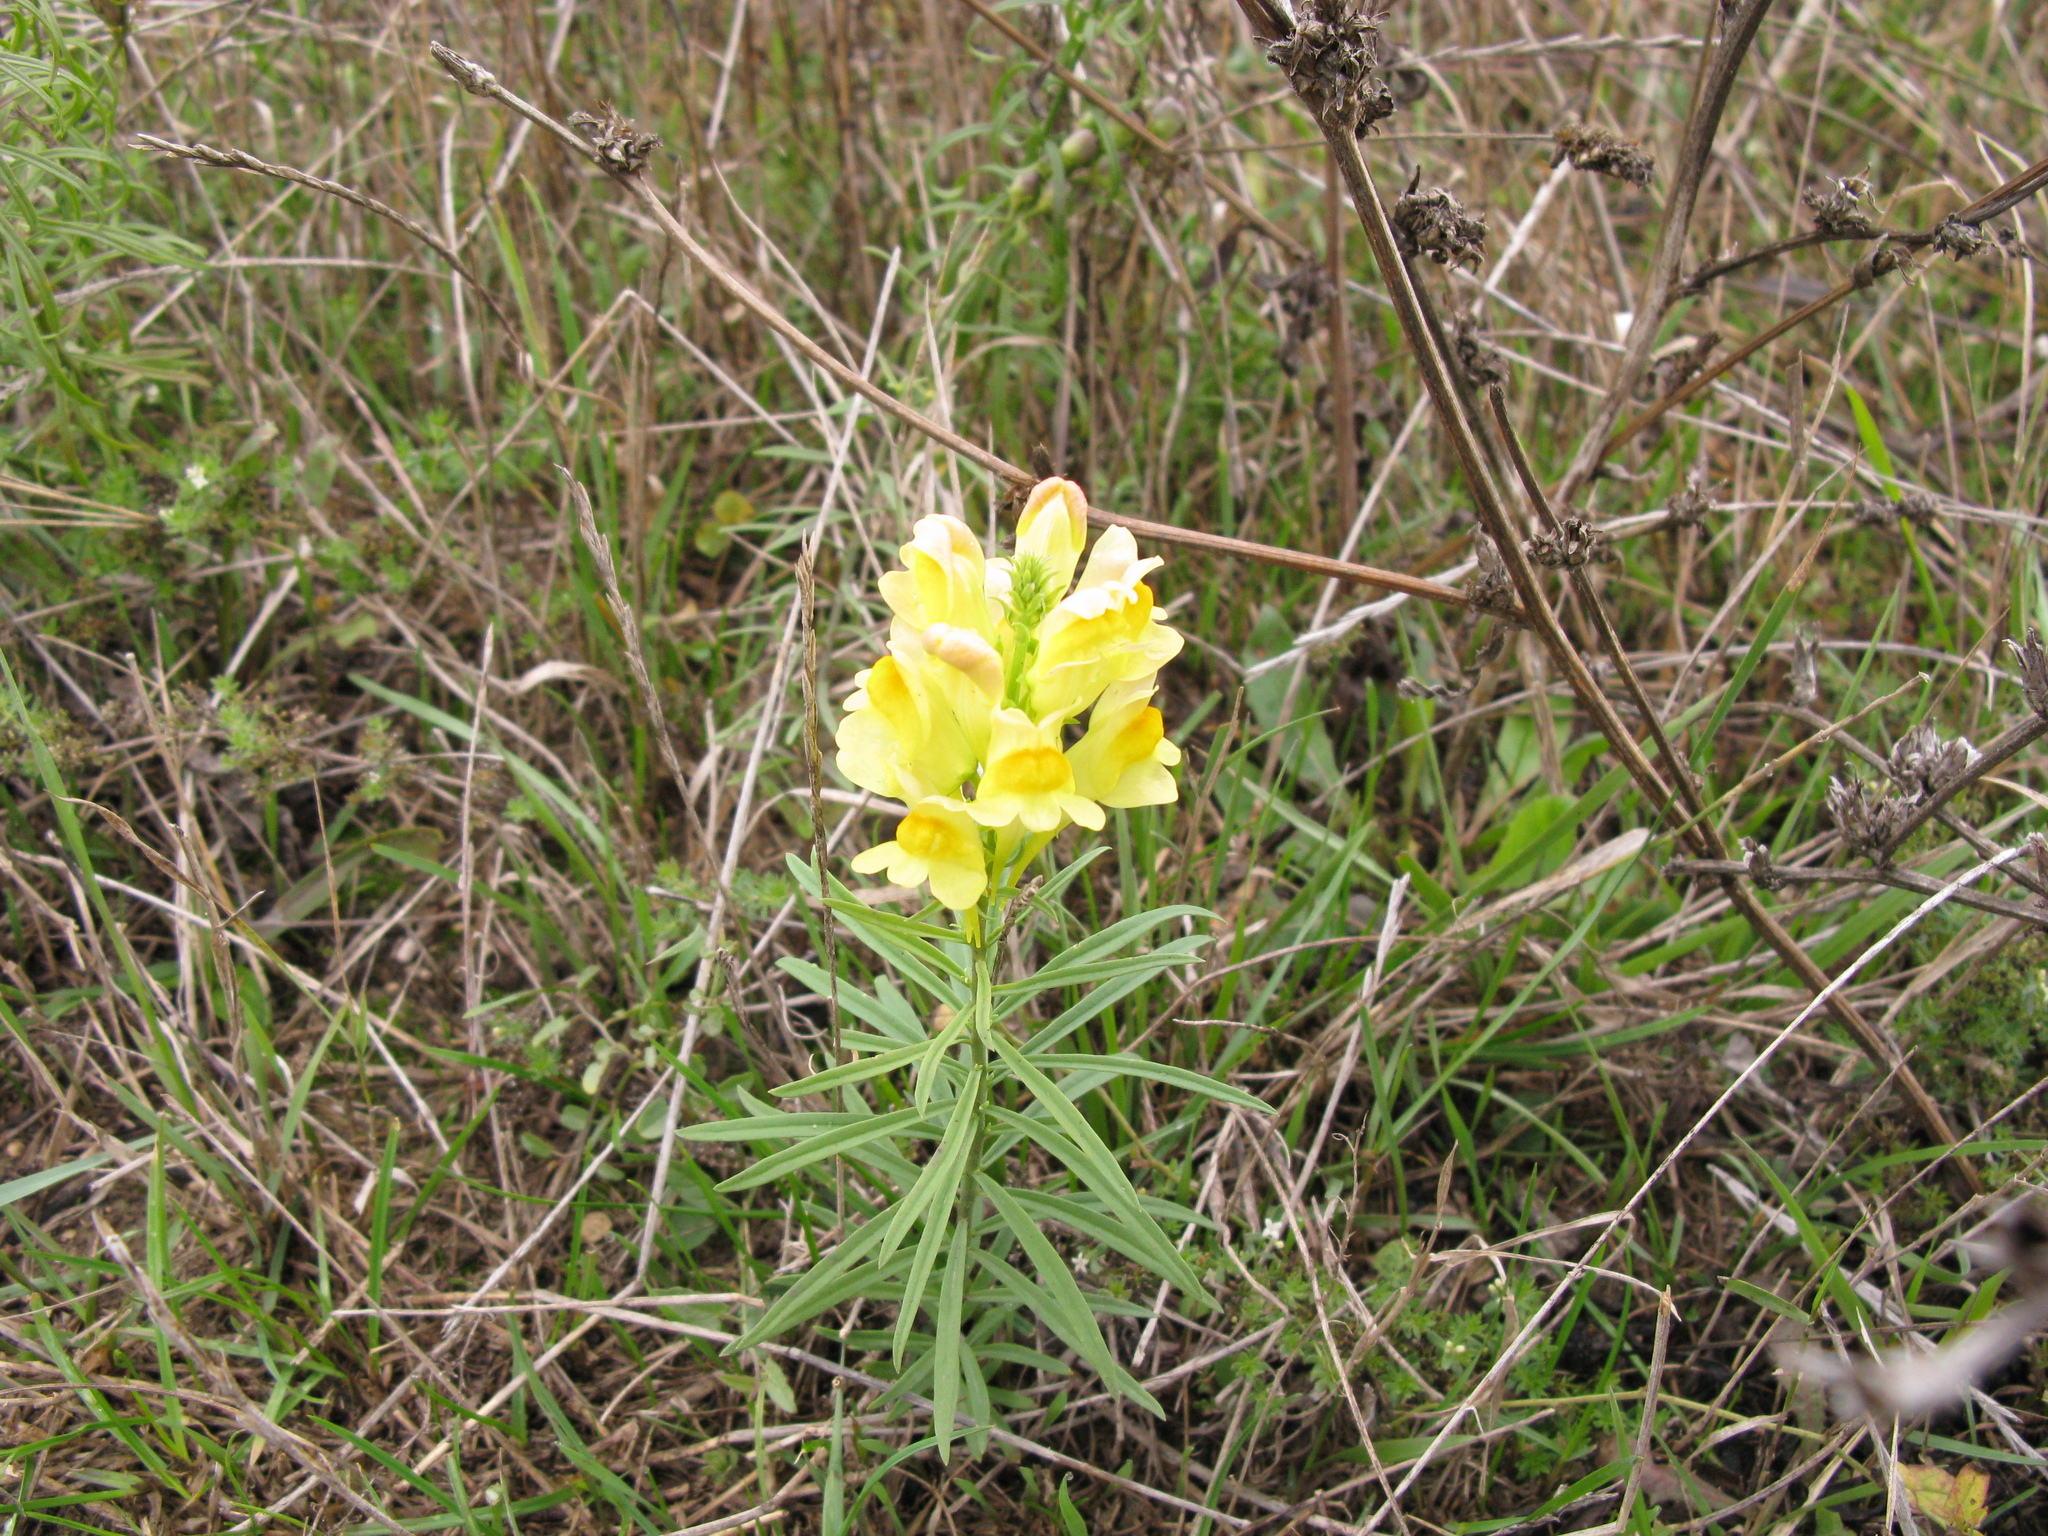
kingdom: Plantae
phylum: Tracheophyta
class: Magnoliopsida
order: Lamiales
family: Plantaginaceae
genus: Linaria
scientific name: Linaria vulgaris
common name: Butter and eggs
